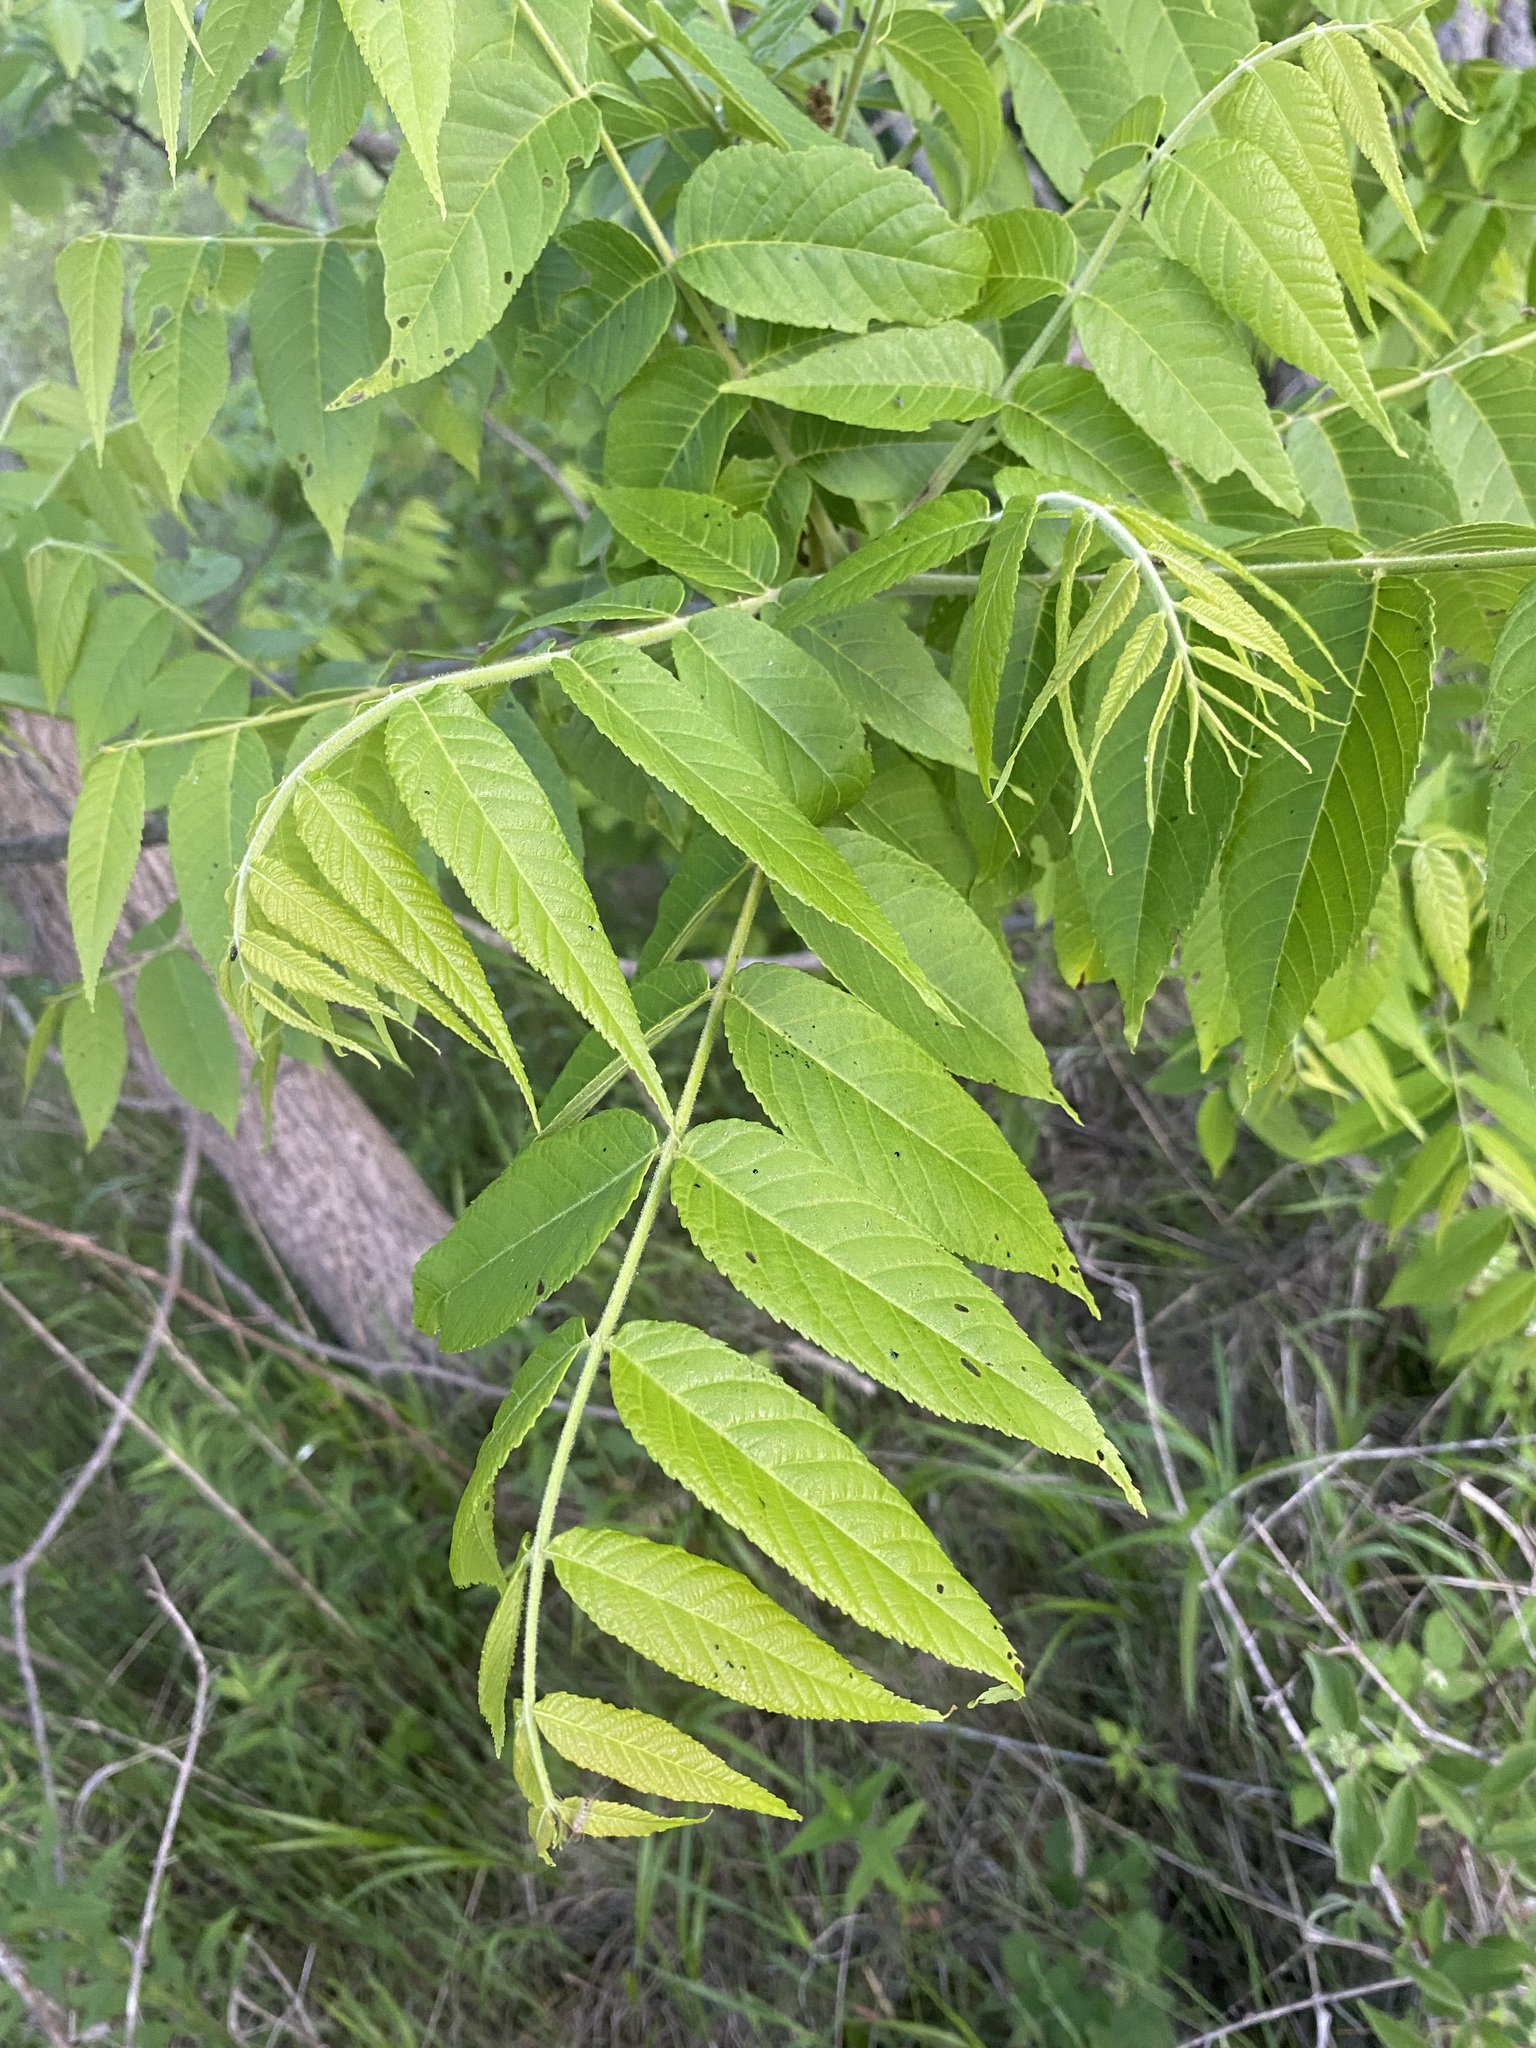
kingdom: Plantae
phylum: Tracheophyta
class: Magnoliopsida
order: Fagales
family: Juglandaceae
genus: Juglans
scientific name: Juglans nigra
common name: Black walnut
